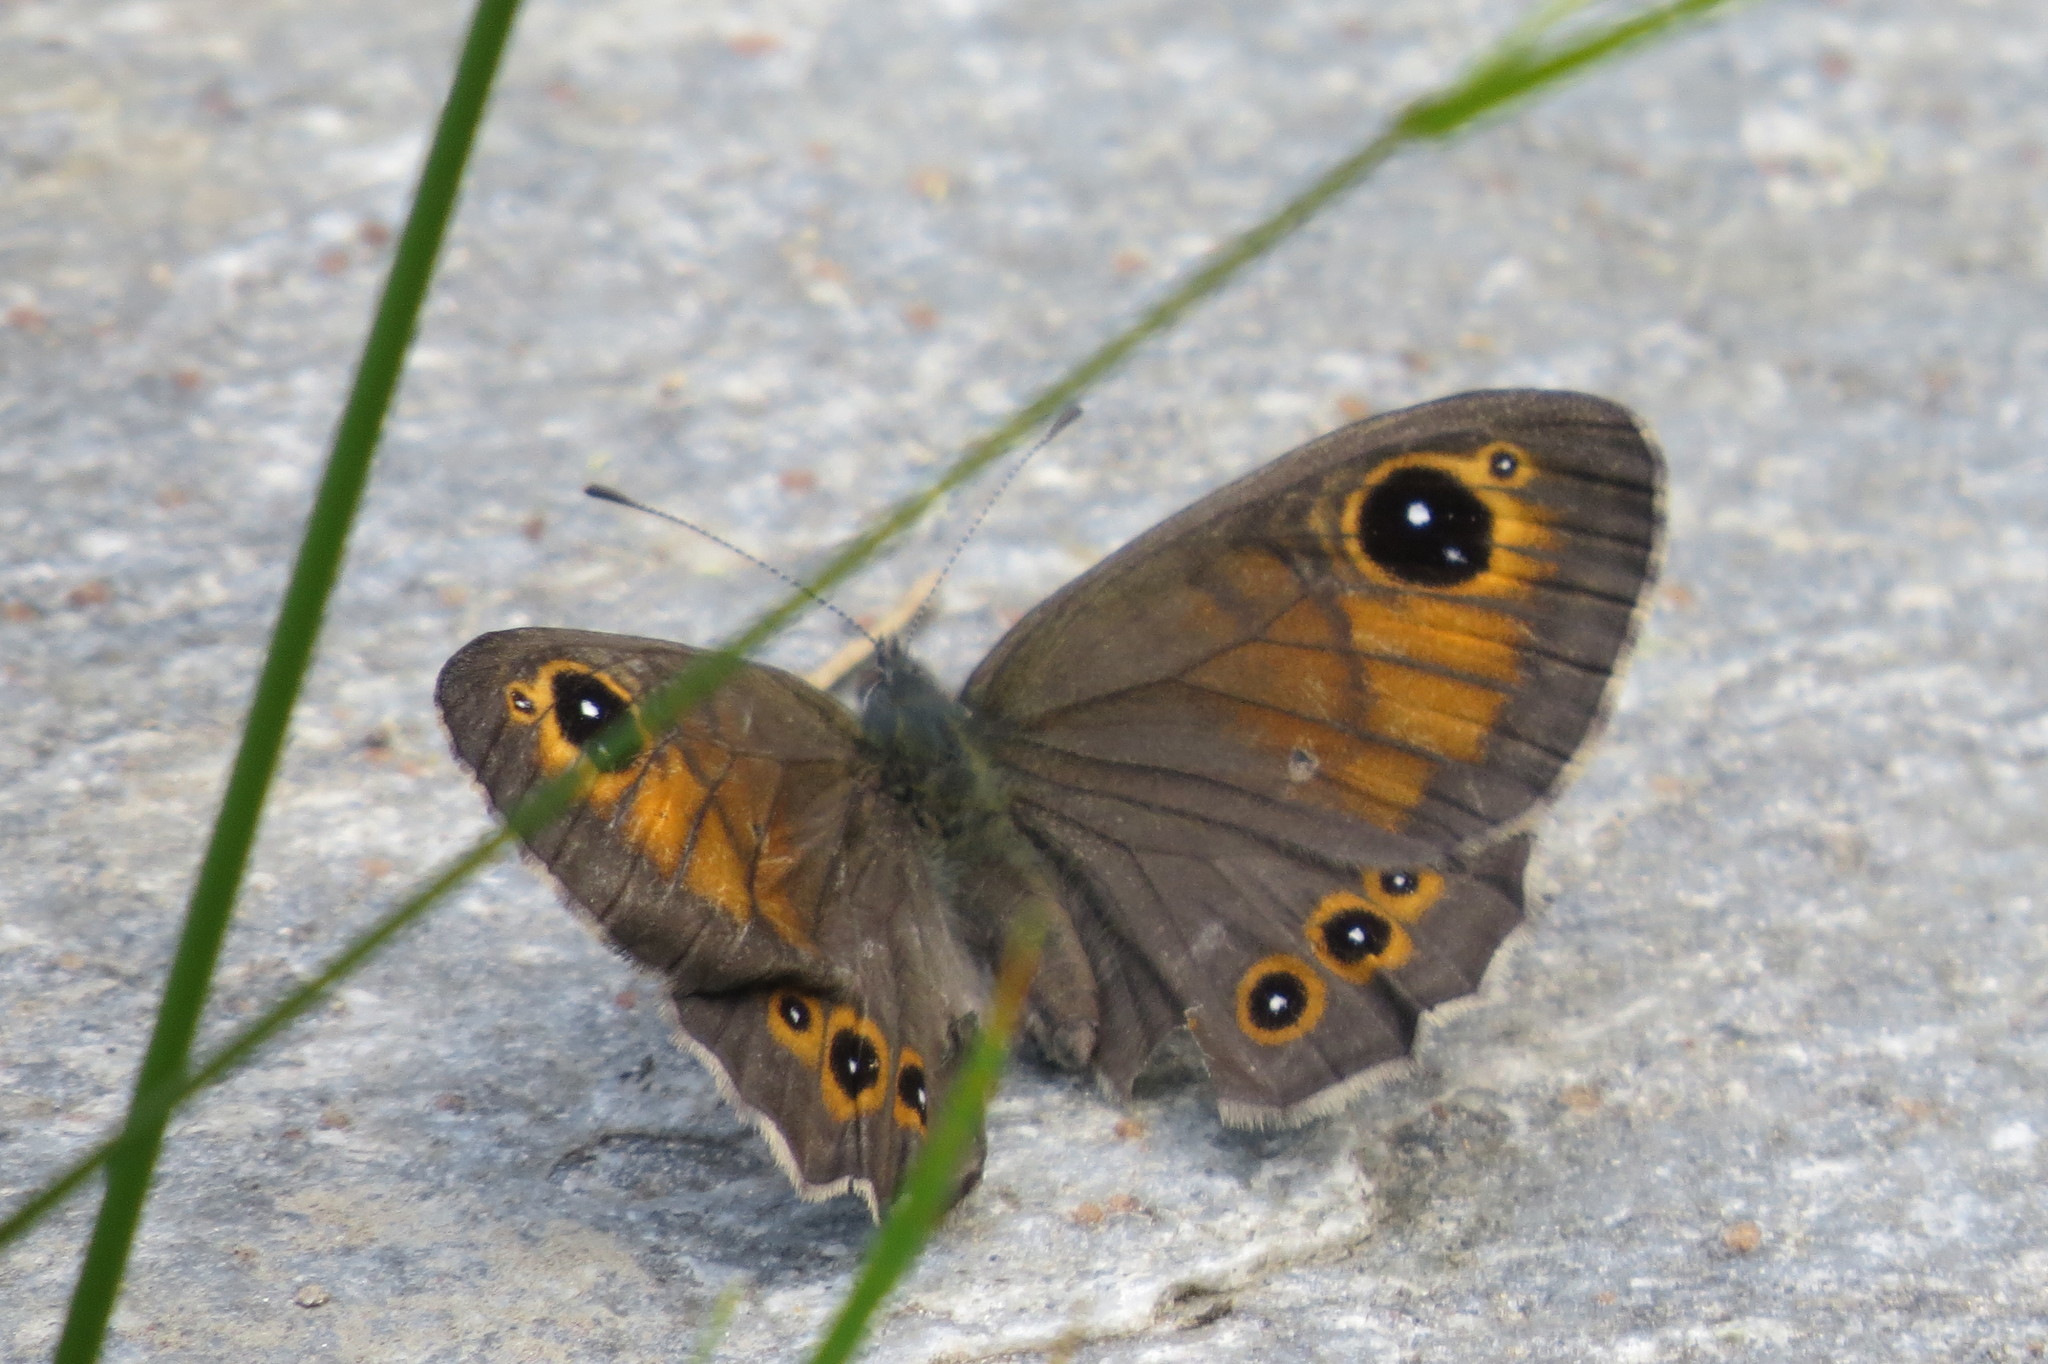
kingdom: Animalia
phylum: Arthropoda
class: Insecta
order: Lepidoptera
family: Nymphalidae
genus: Pararge
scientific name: Pararge Lasiommata maera
